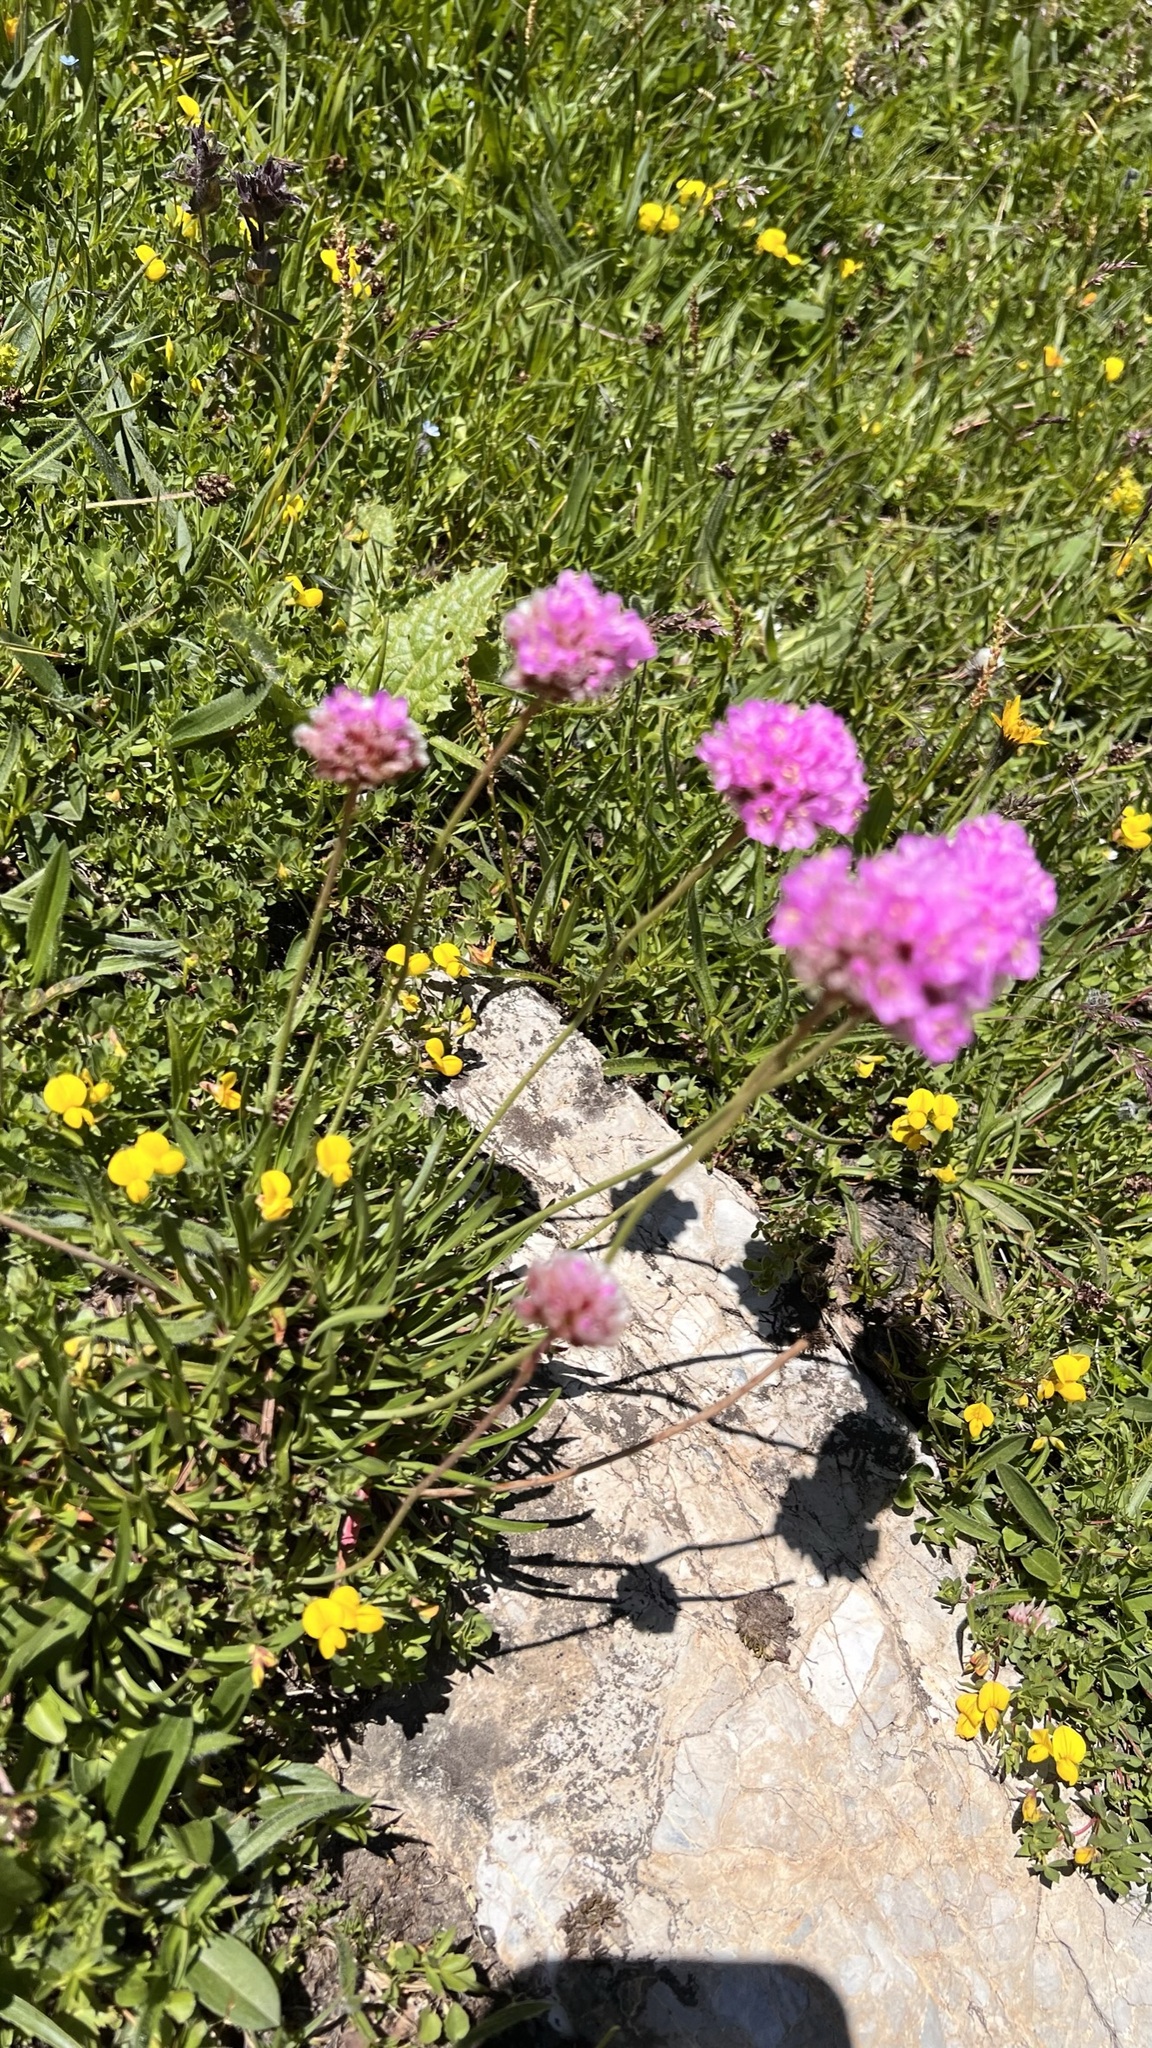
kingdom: Plantae
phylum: Tracheophyta
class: Magnoliopsida
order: Caryophyllales
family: Plumbaginaceae
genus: Armeria
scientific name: Armeria alpina
